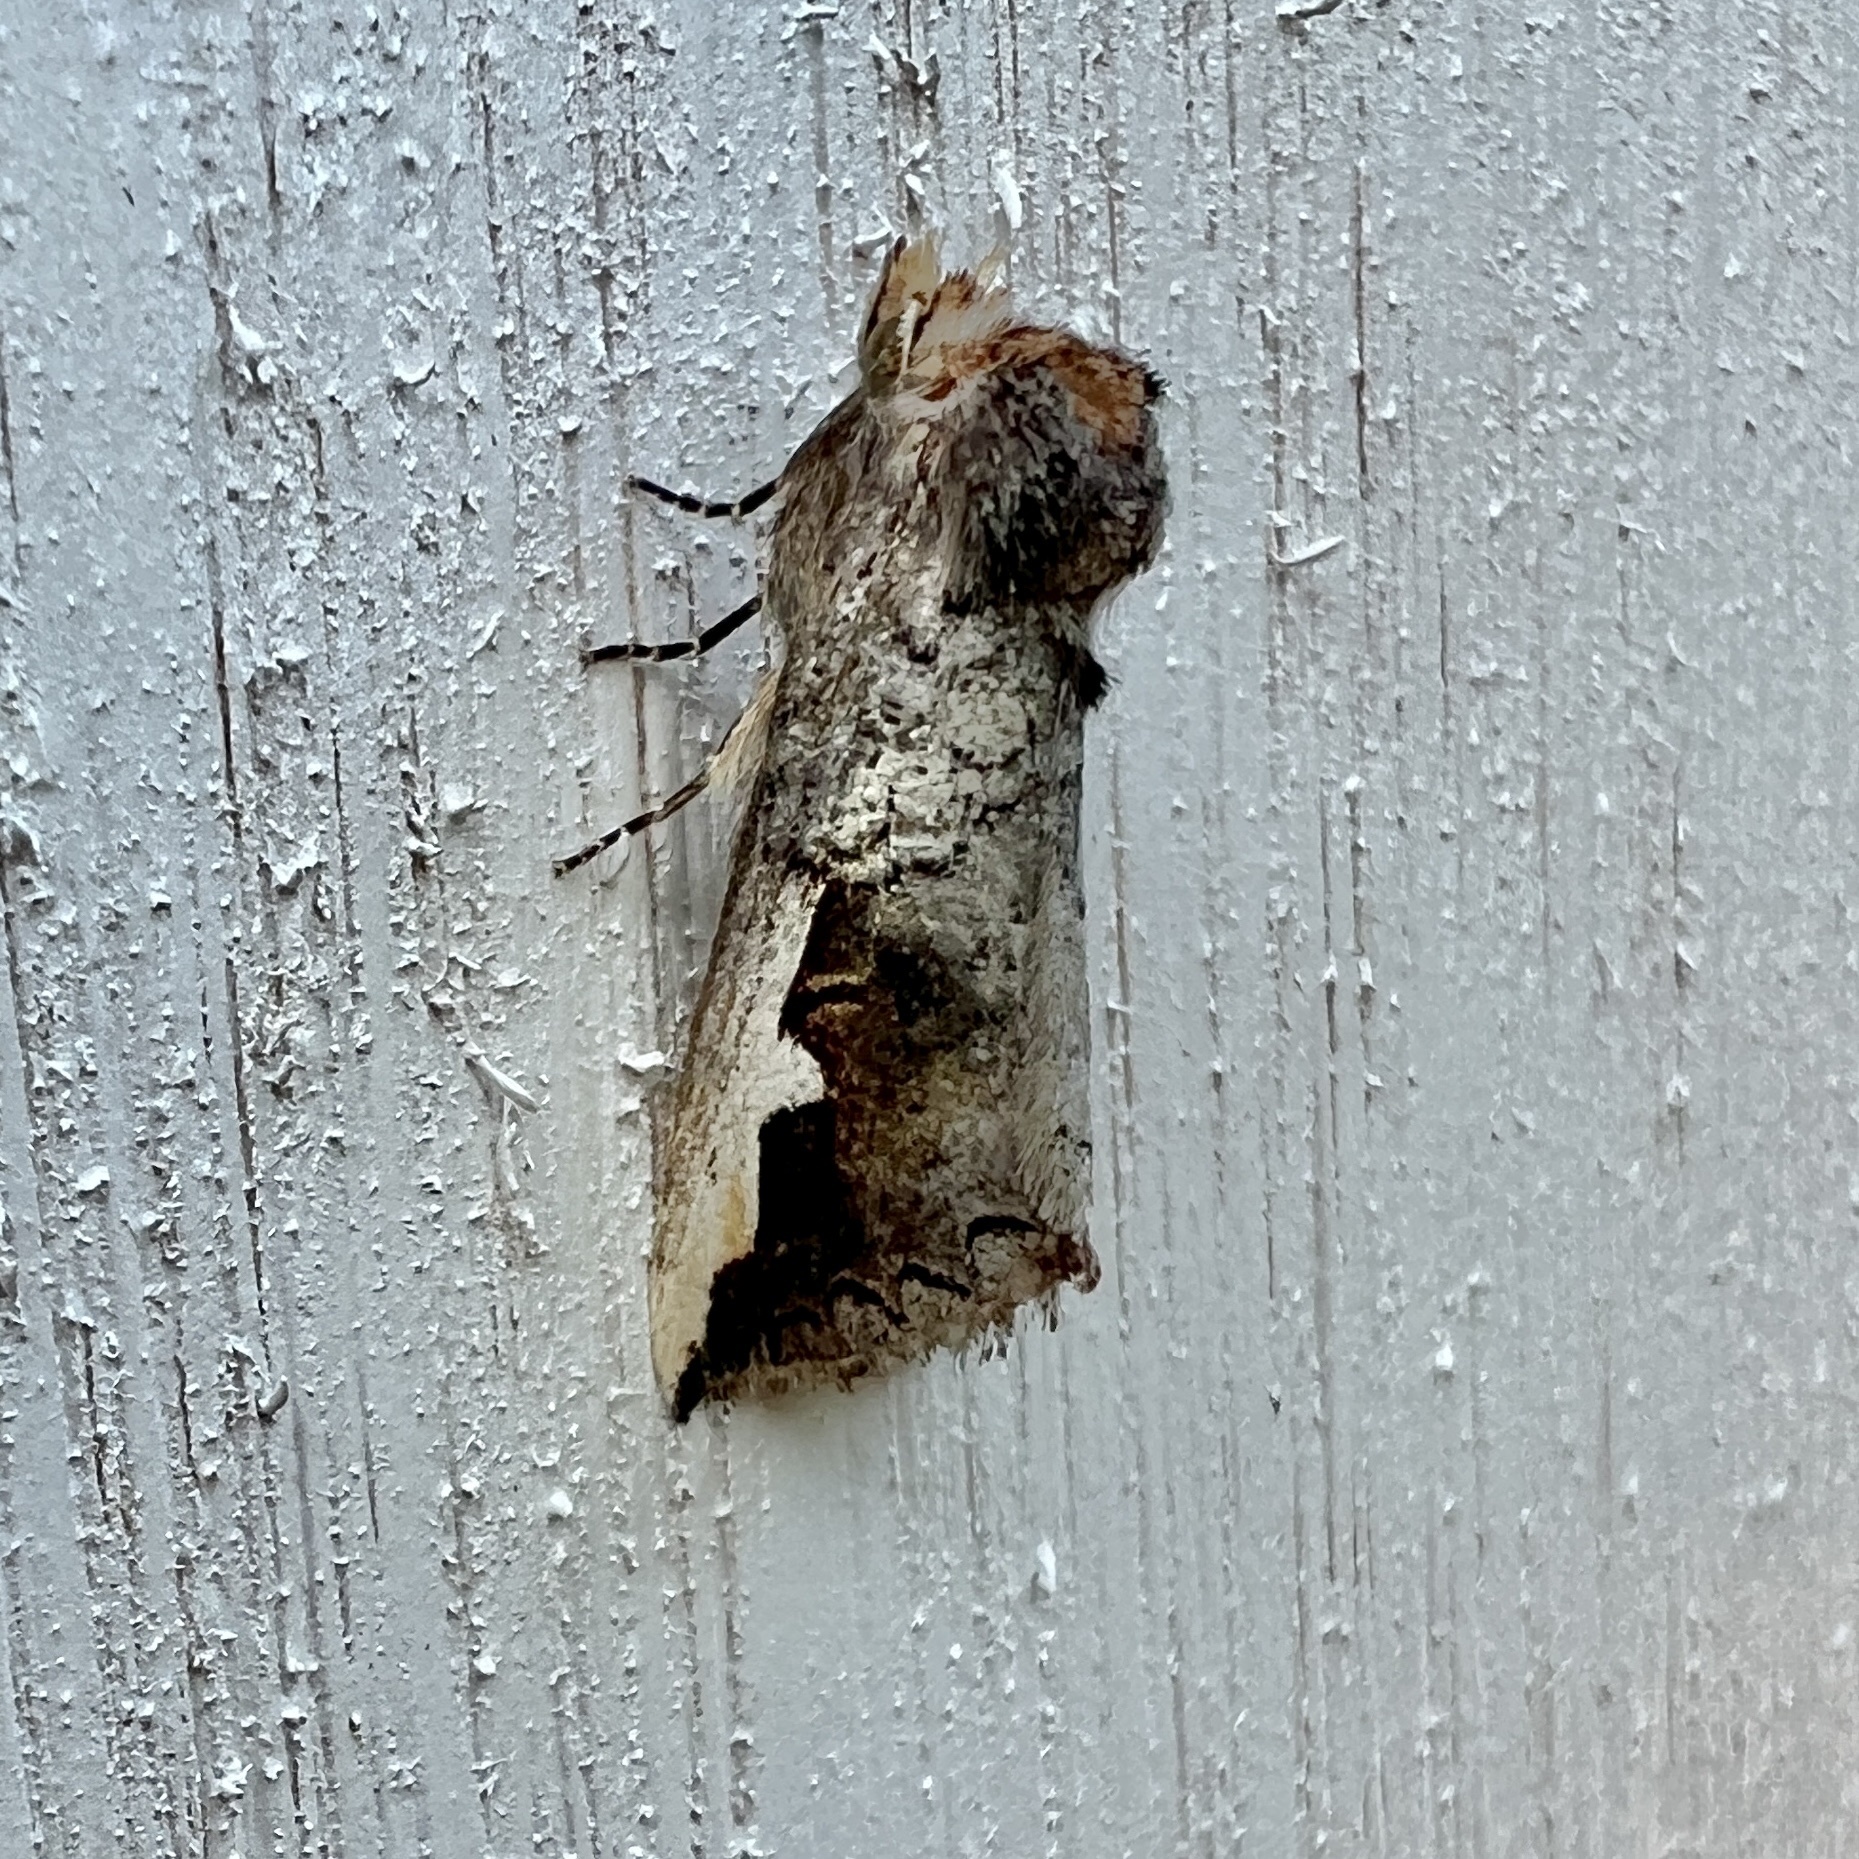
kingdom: Animalia
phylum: Arthropoda
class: Insecta
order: Lepidoptera
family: Notodontidae
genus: Symmerista
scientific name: Symmerista leucitys
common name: Orange-humped mapleworm
